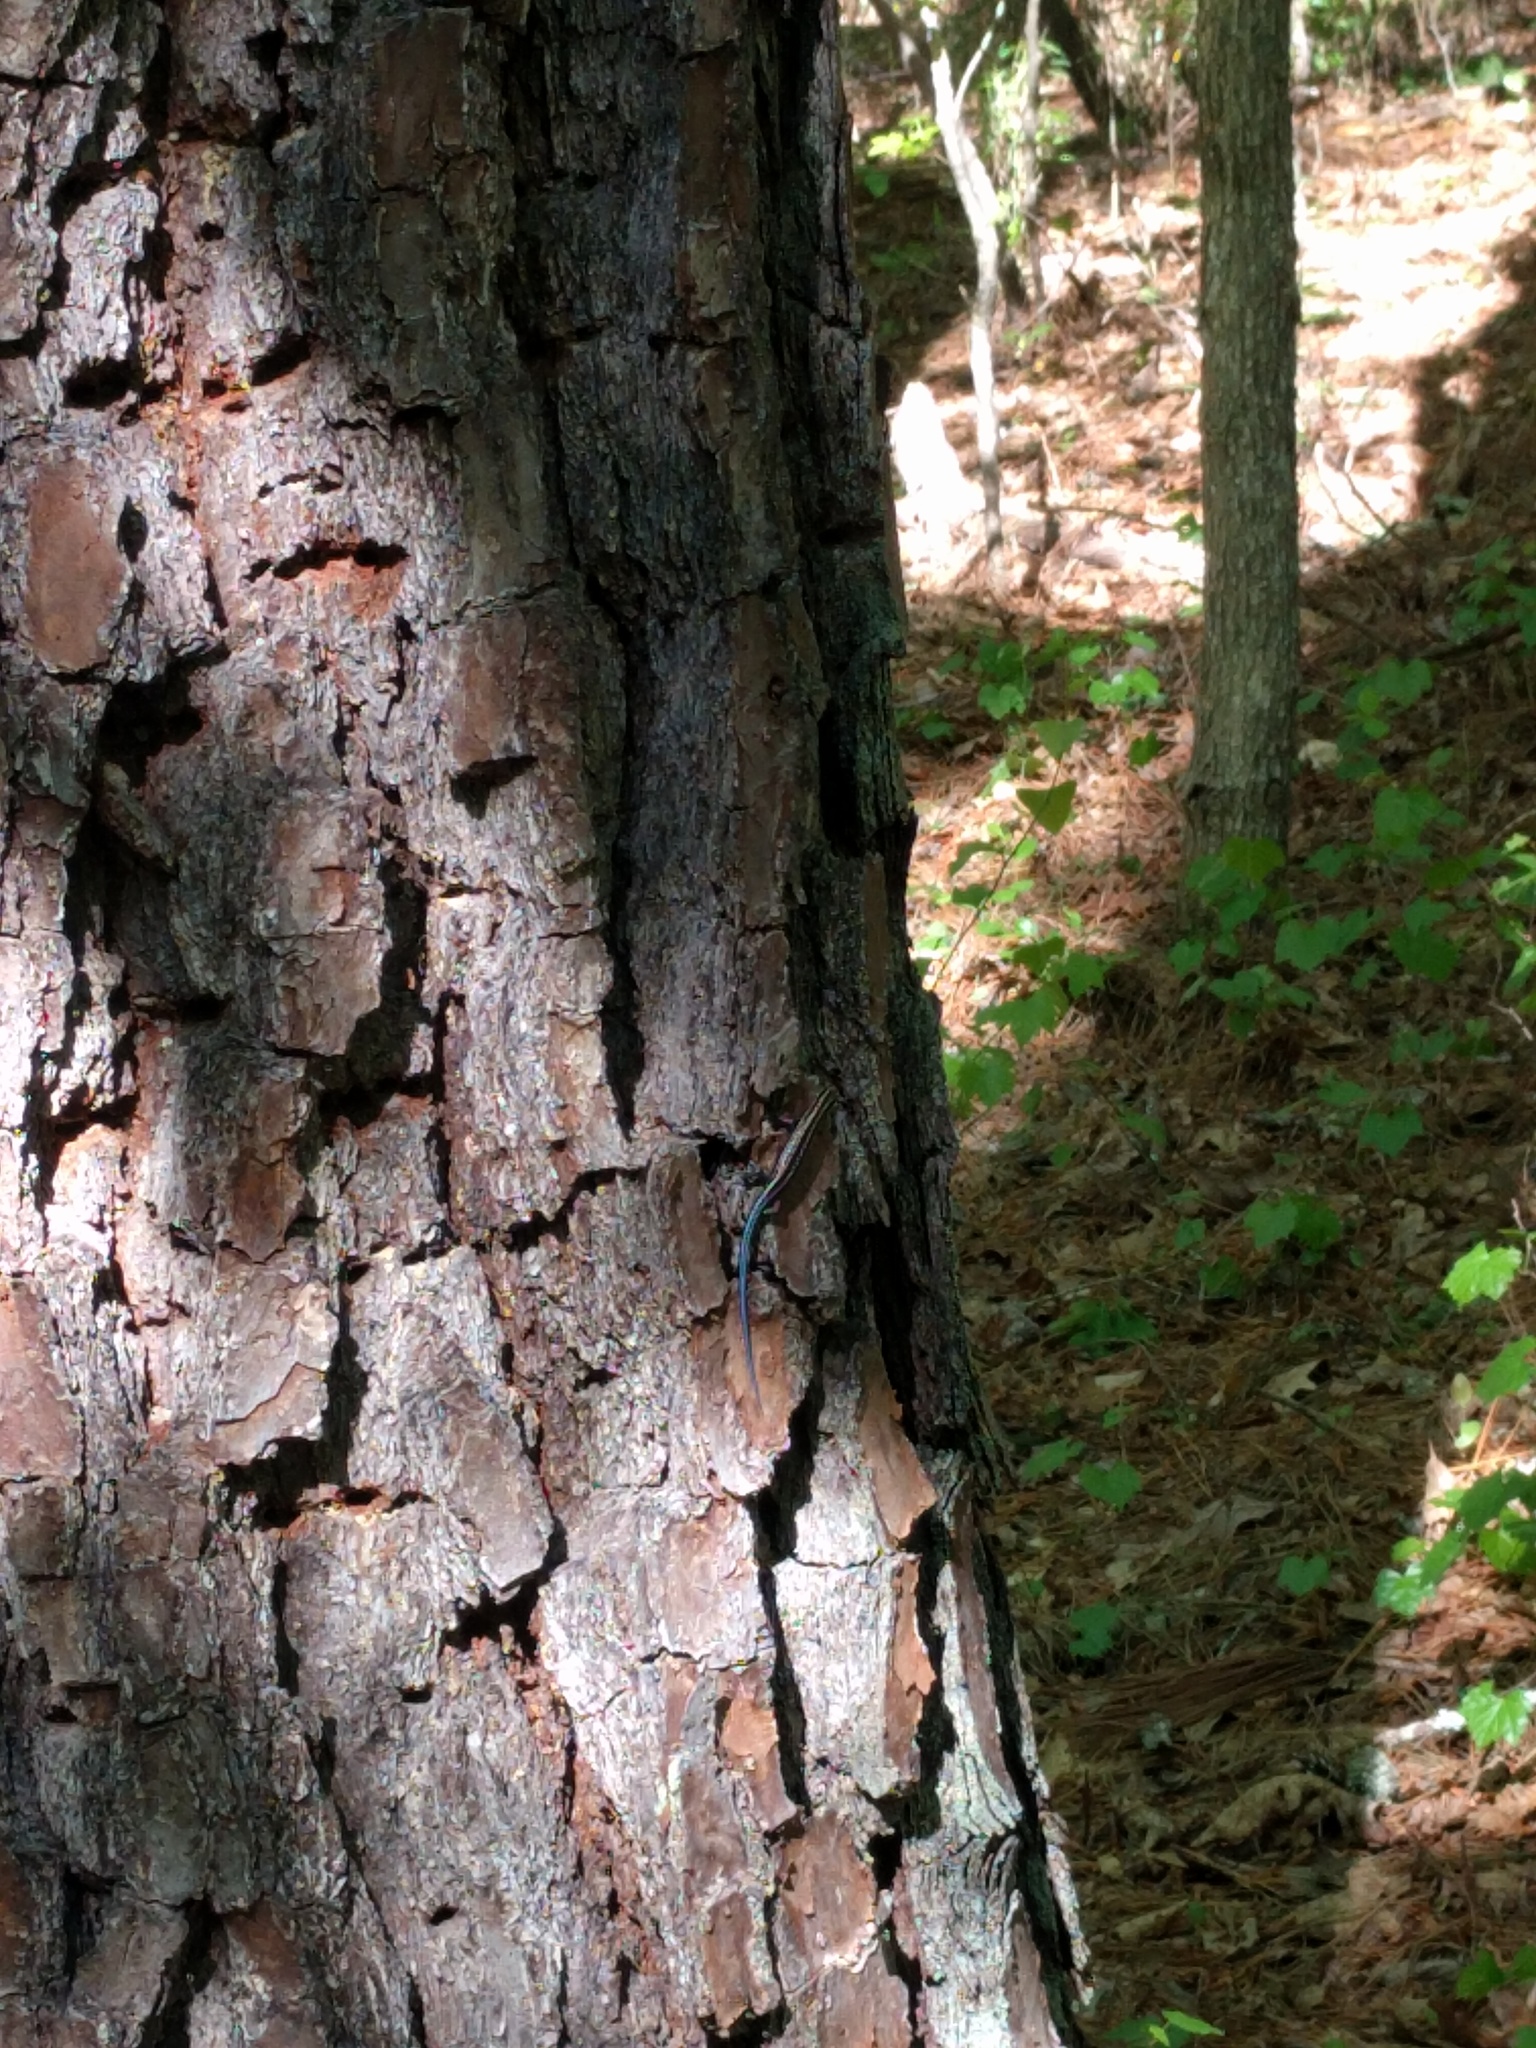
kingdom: Animalia
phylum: Chordata
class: Squamata
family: Scincidae
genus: Plestiodon
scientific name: Plestiodon fasciatus
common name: Five-lined skink
